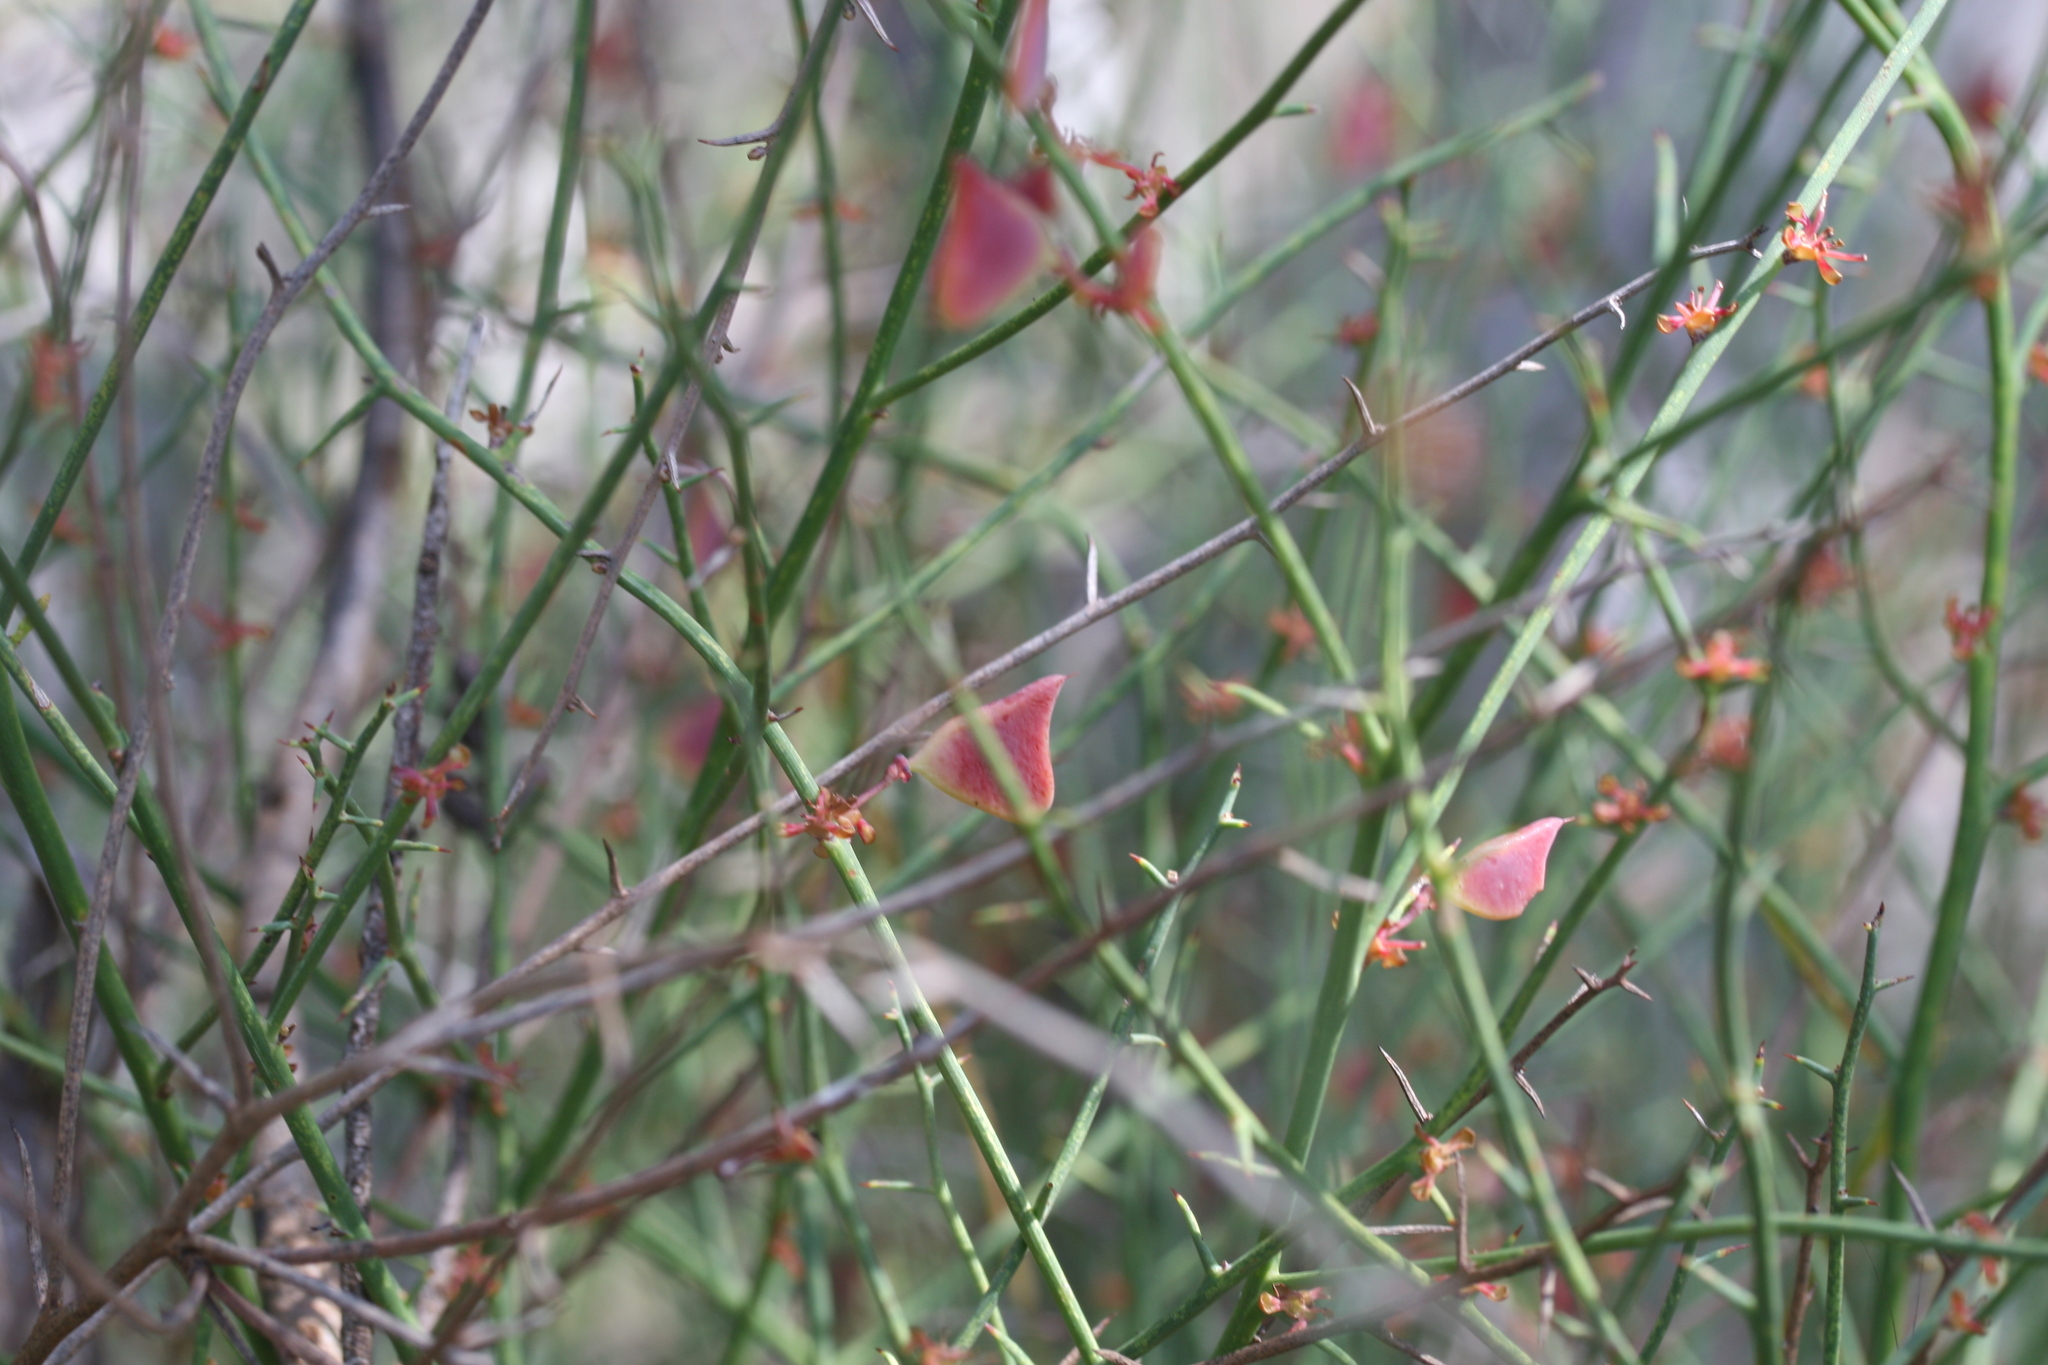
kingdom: Plantae
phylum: Tracheophyta
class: Magnoliopsida
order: Fabales
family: Fabaceae
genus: Daviesia
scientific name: Daviesia hakeoides
